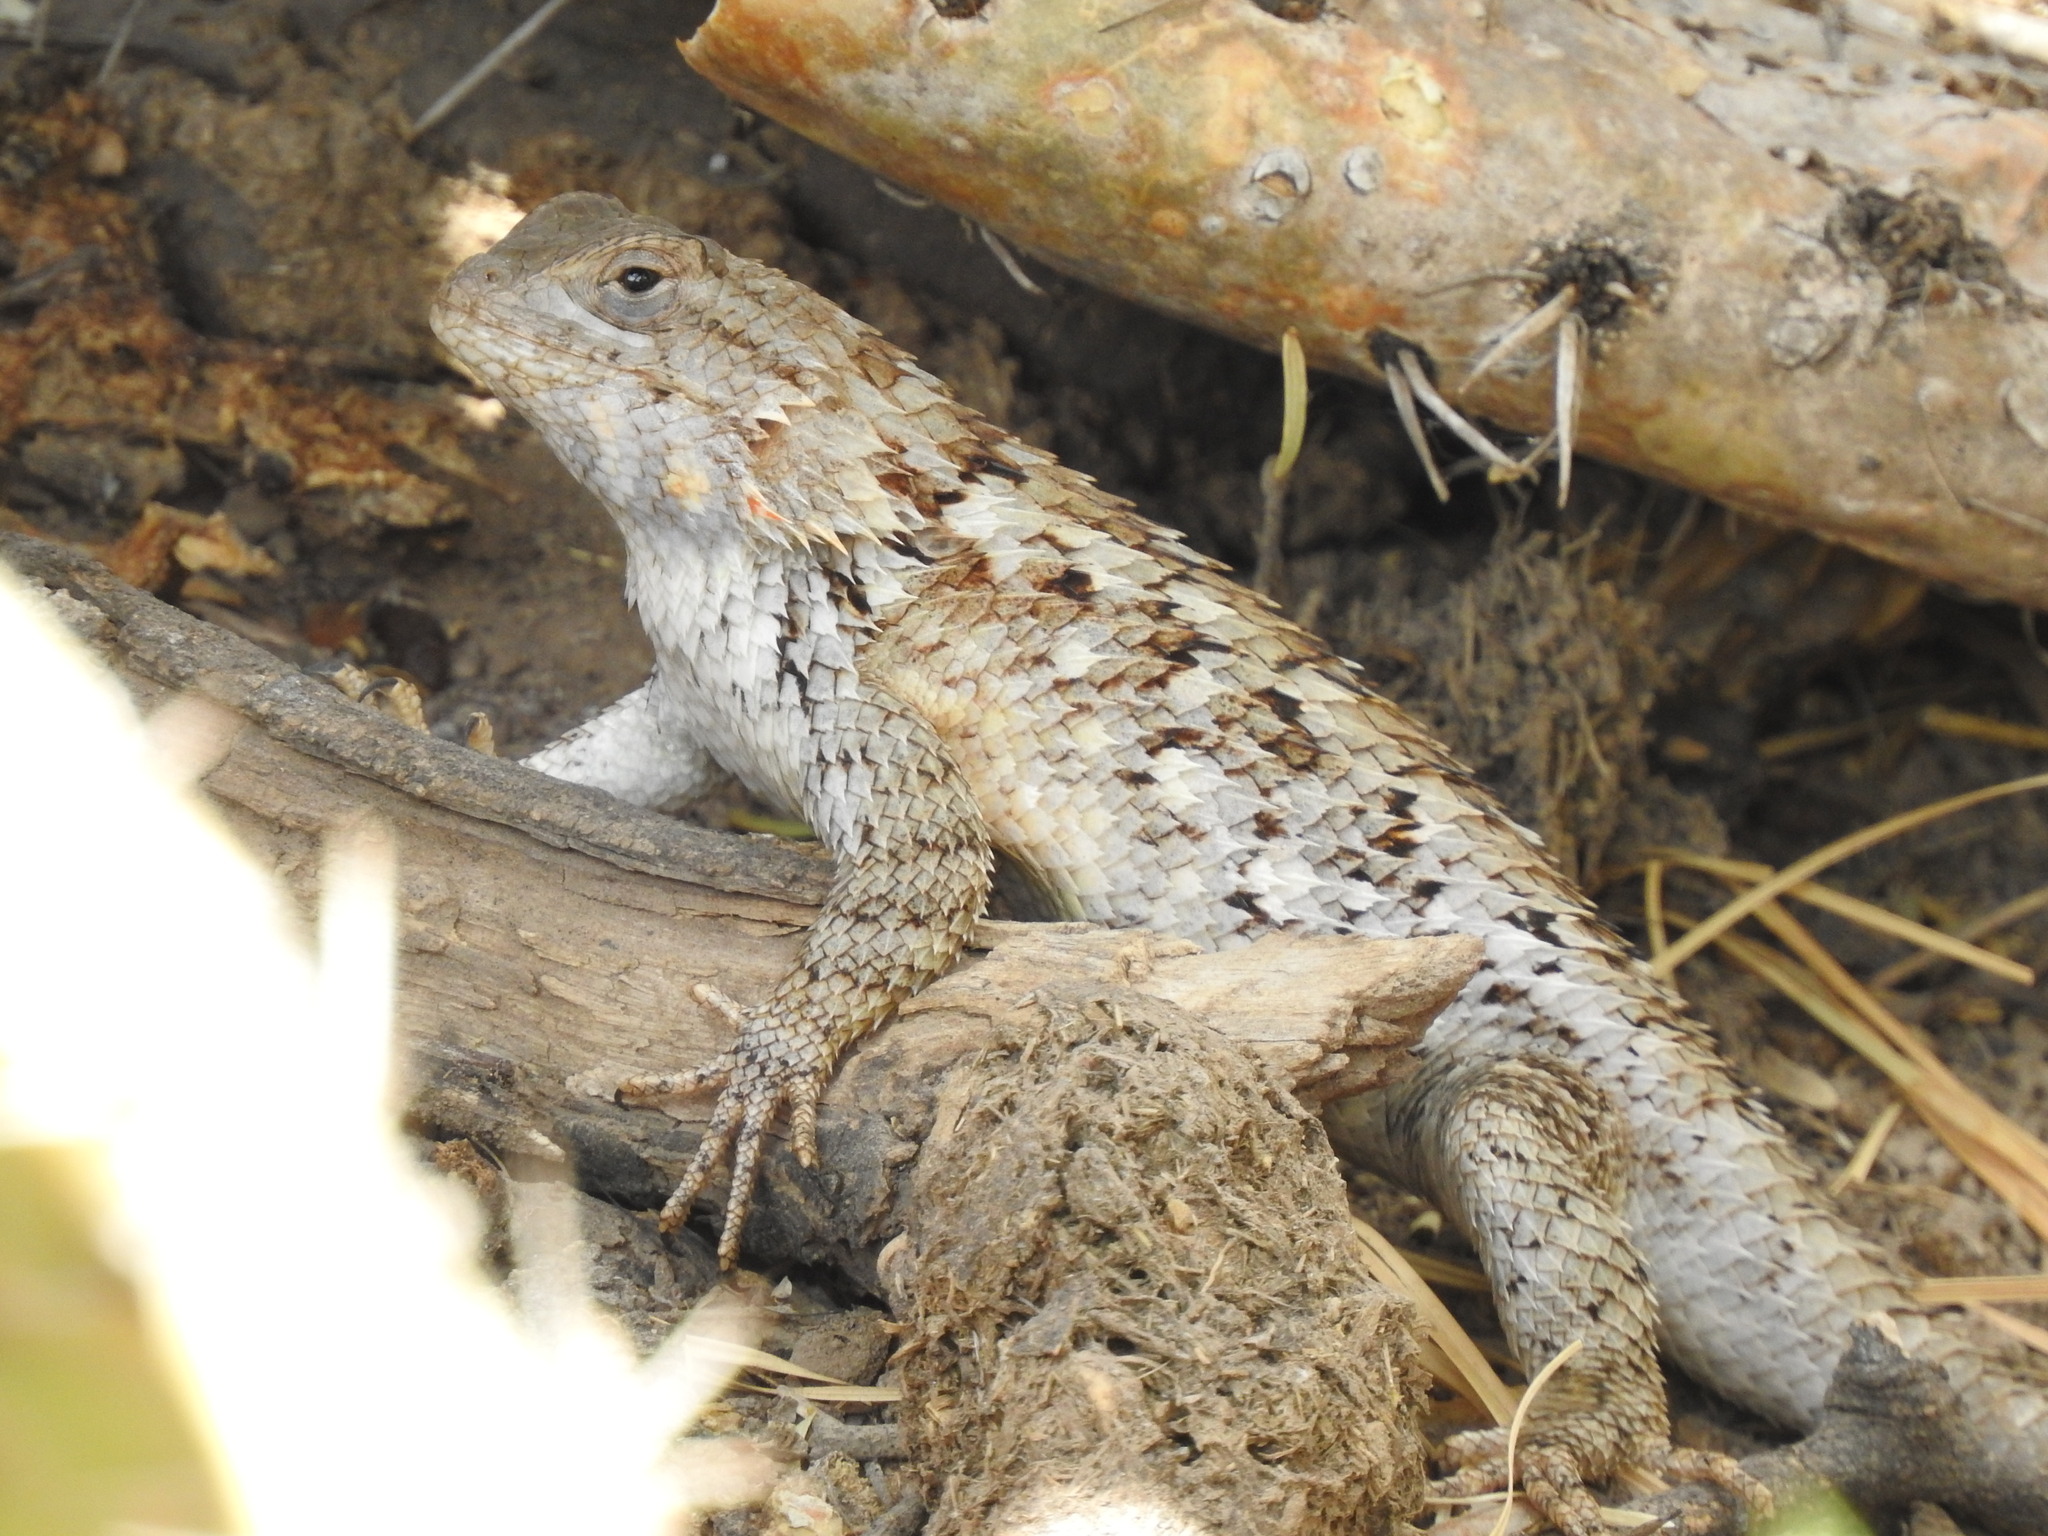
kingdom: Animalia
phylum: Chordata
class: Squamata
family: Phrynosomatidae
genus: Sceloporus
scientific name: Sceloporus spinosus
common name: Blue-spotted spiny lizard [caeruleopunctatus]
